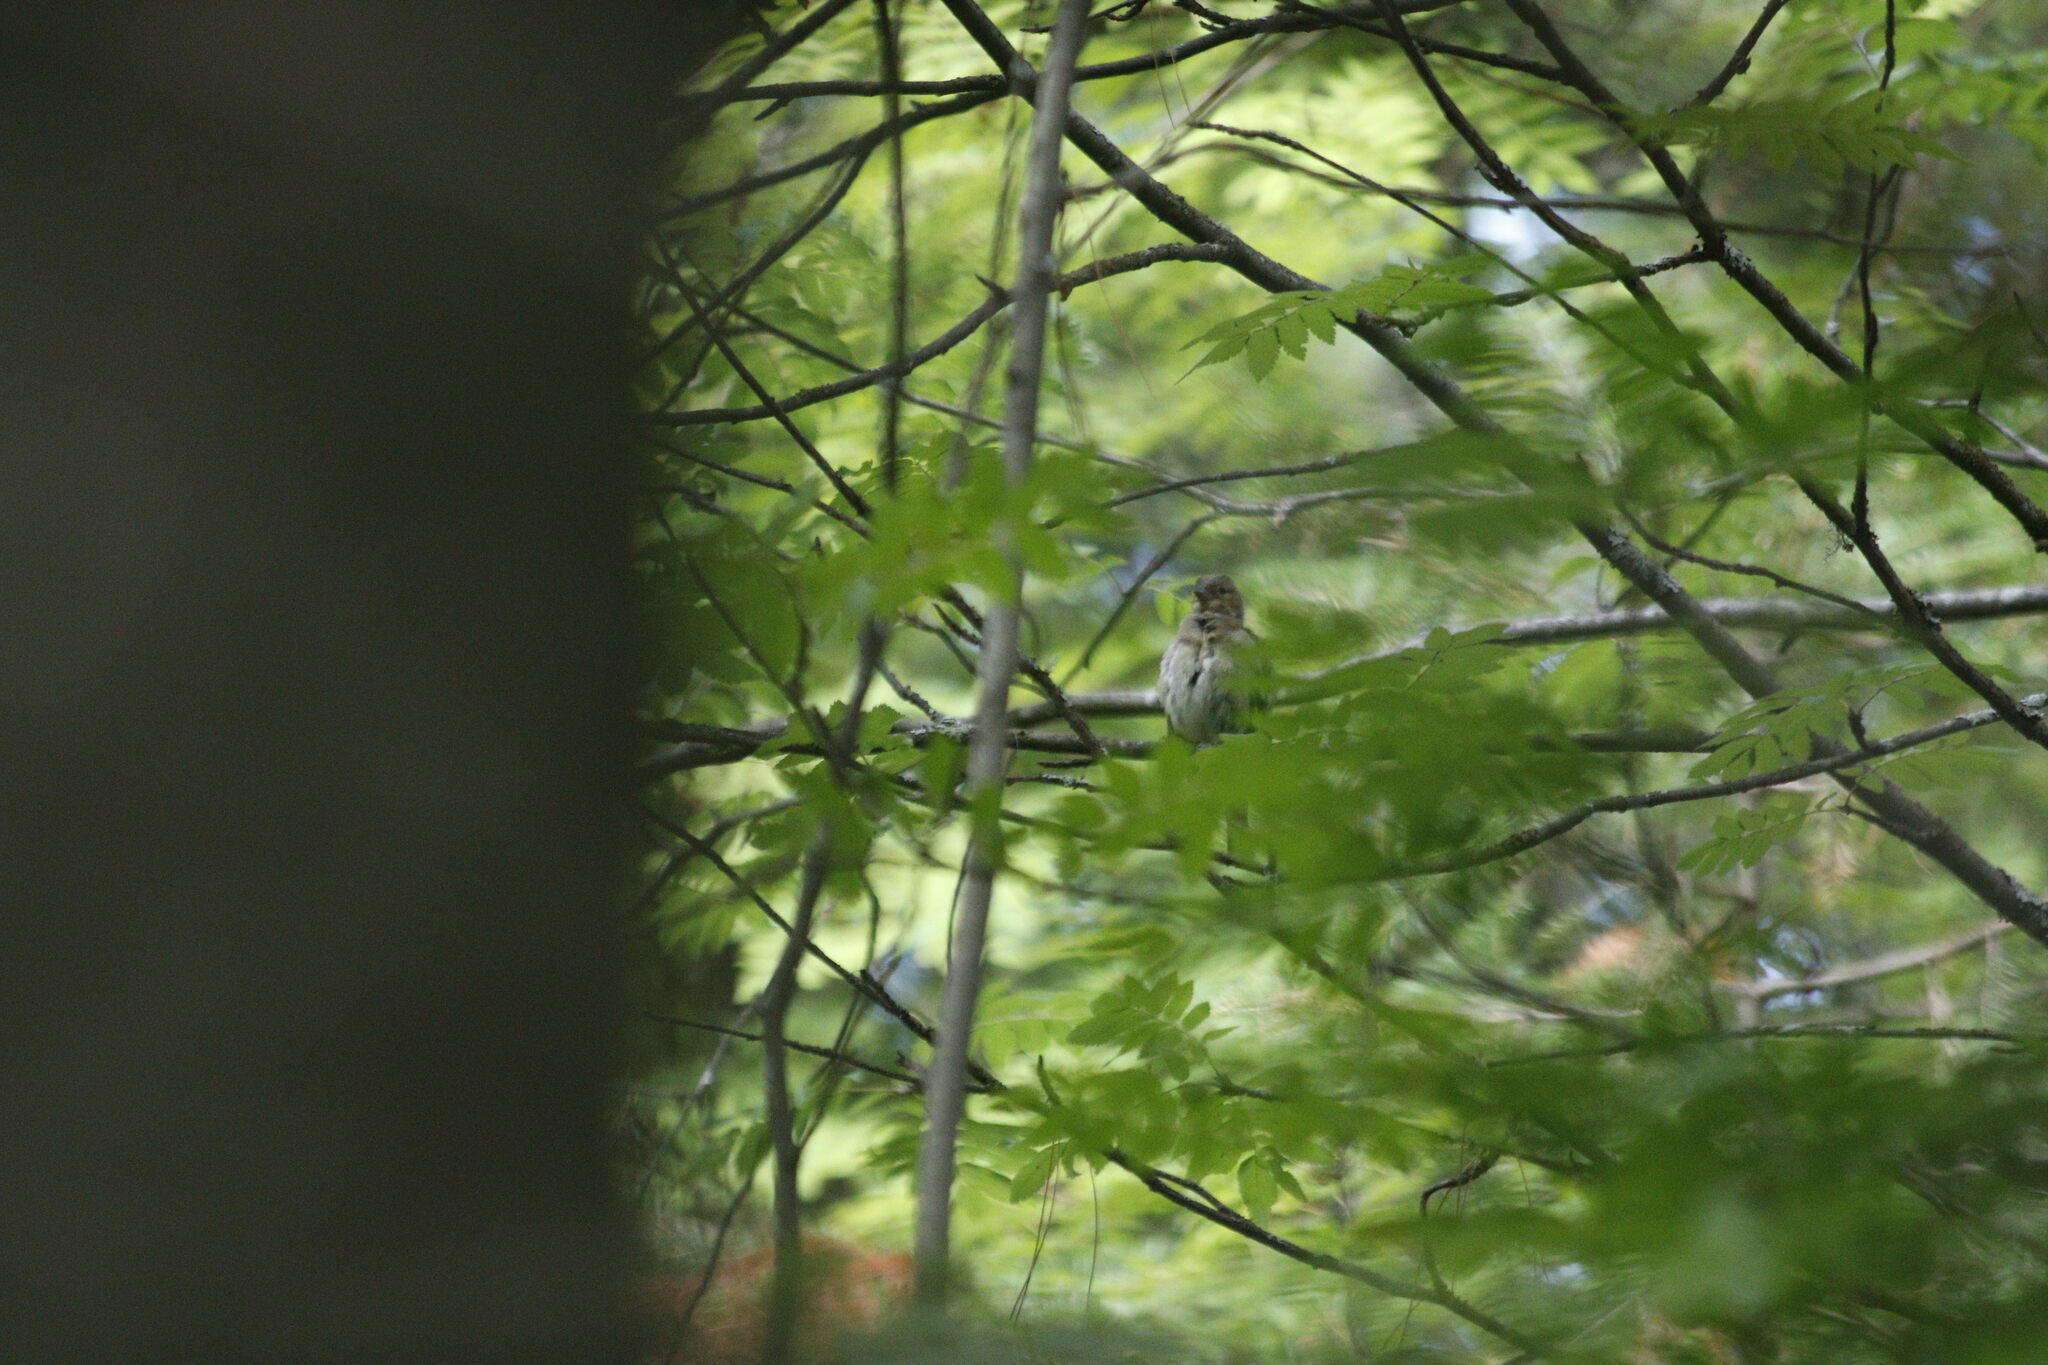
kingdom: Animalia
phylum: Chordata
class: Aves
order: Passeriformes
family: Fringillidae
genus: Fringilla
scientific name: Fringilla coelebs
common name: Common chaffinch
